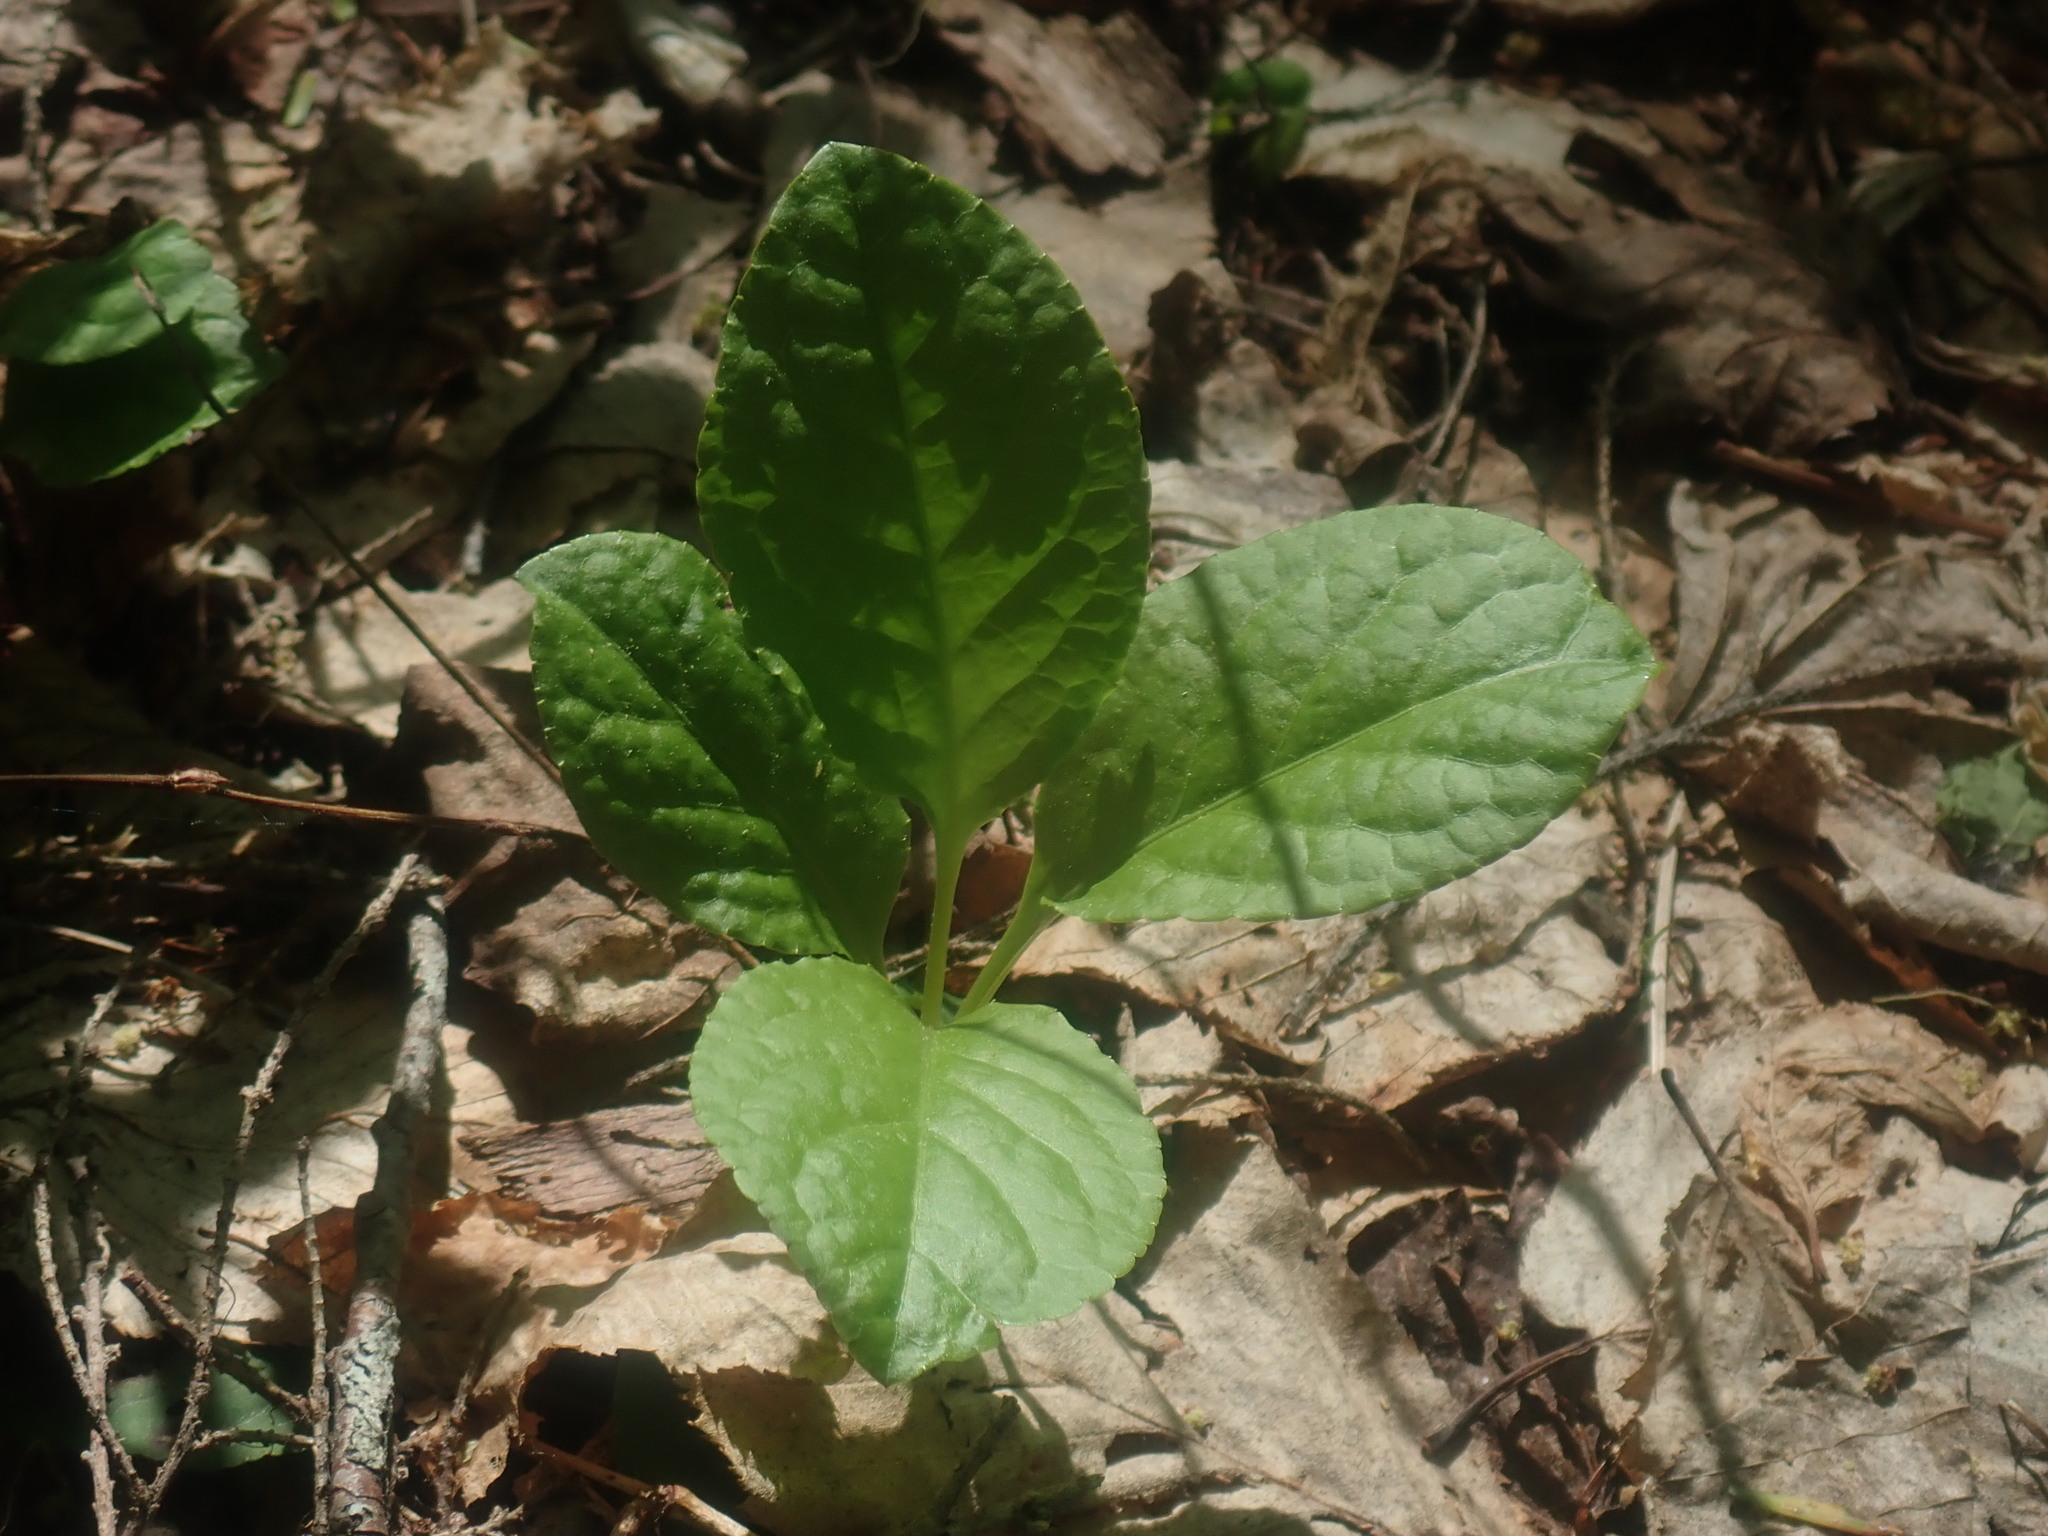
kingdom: Plantae
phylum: Tracheophyta
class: Magnoliopsida
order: Ericales
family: Ericaceae
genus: Pyrola
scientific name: Pyrola elliptica
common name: Shinleaf
